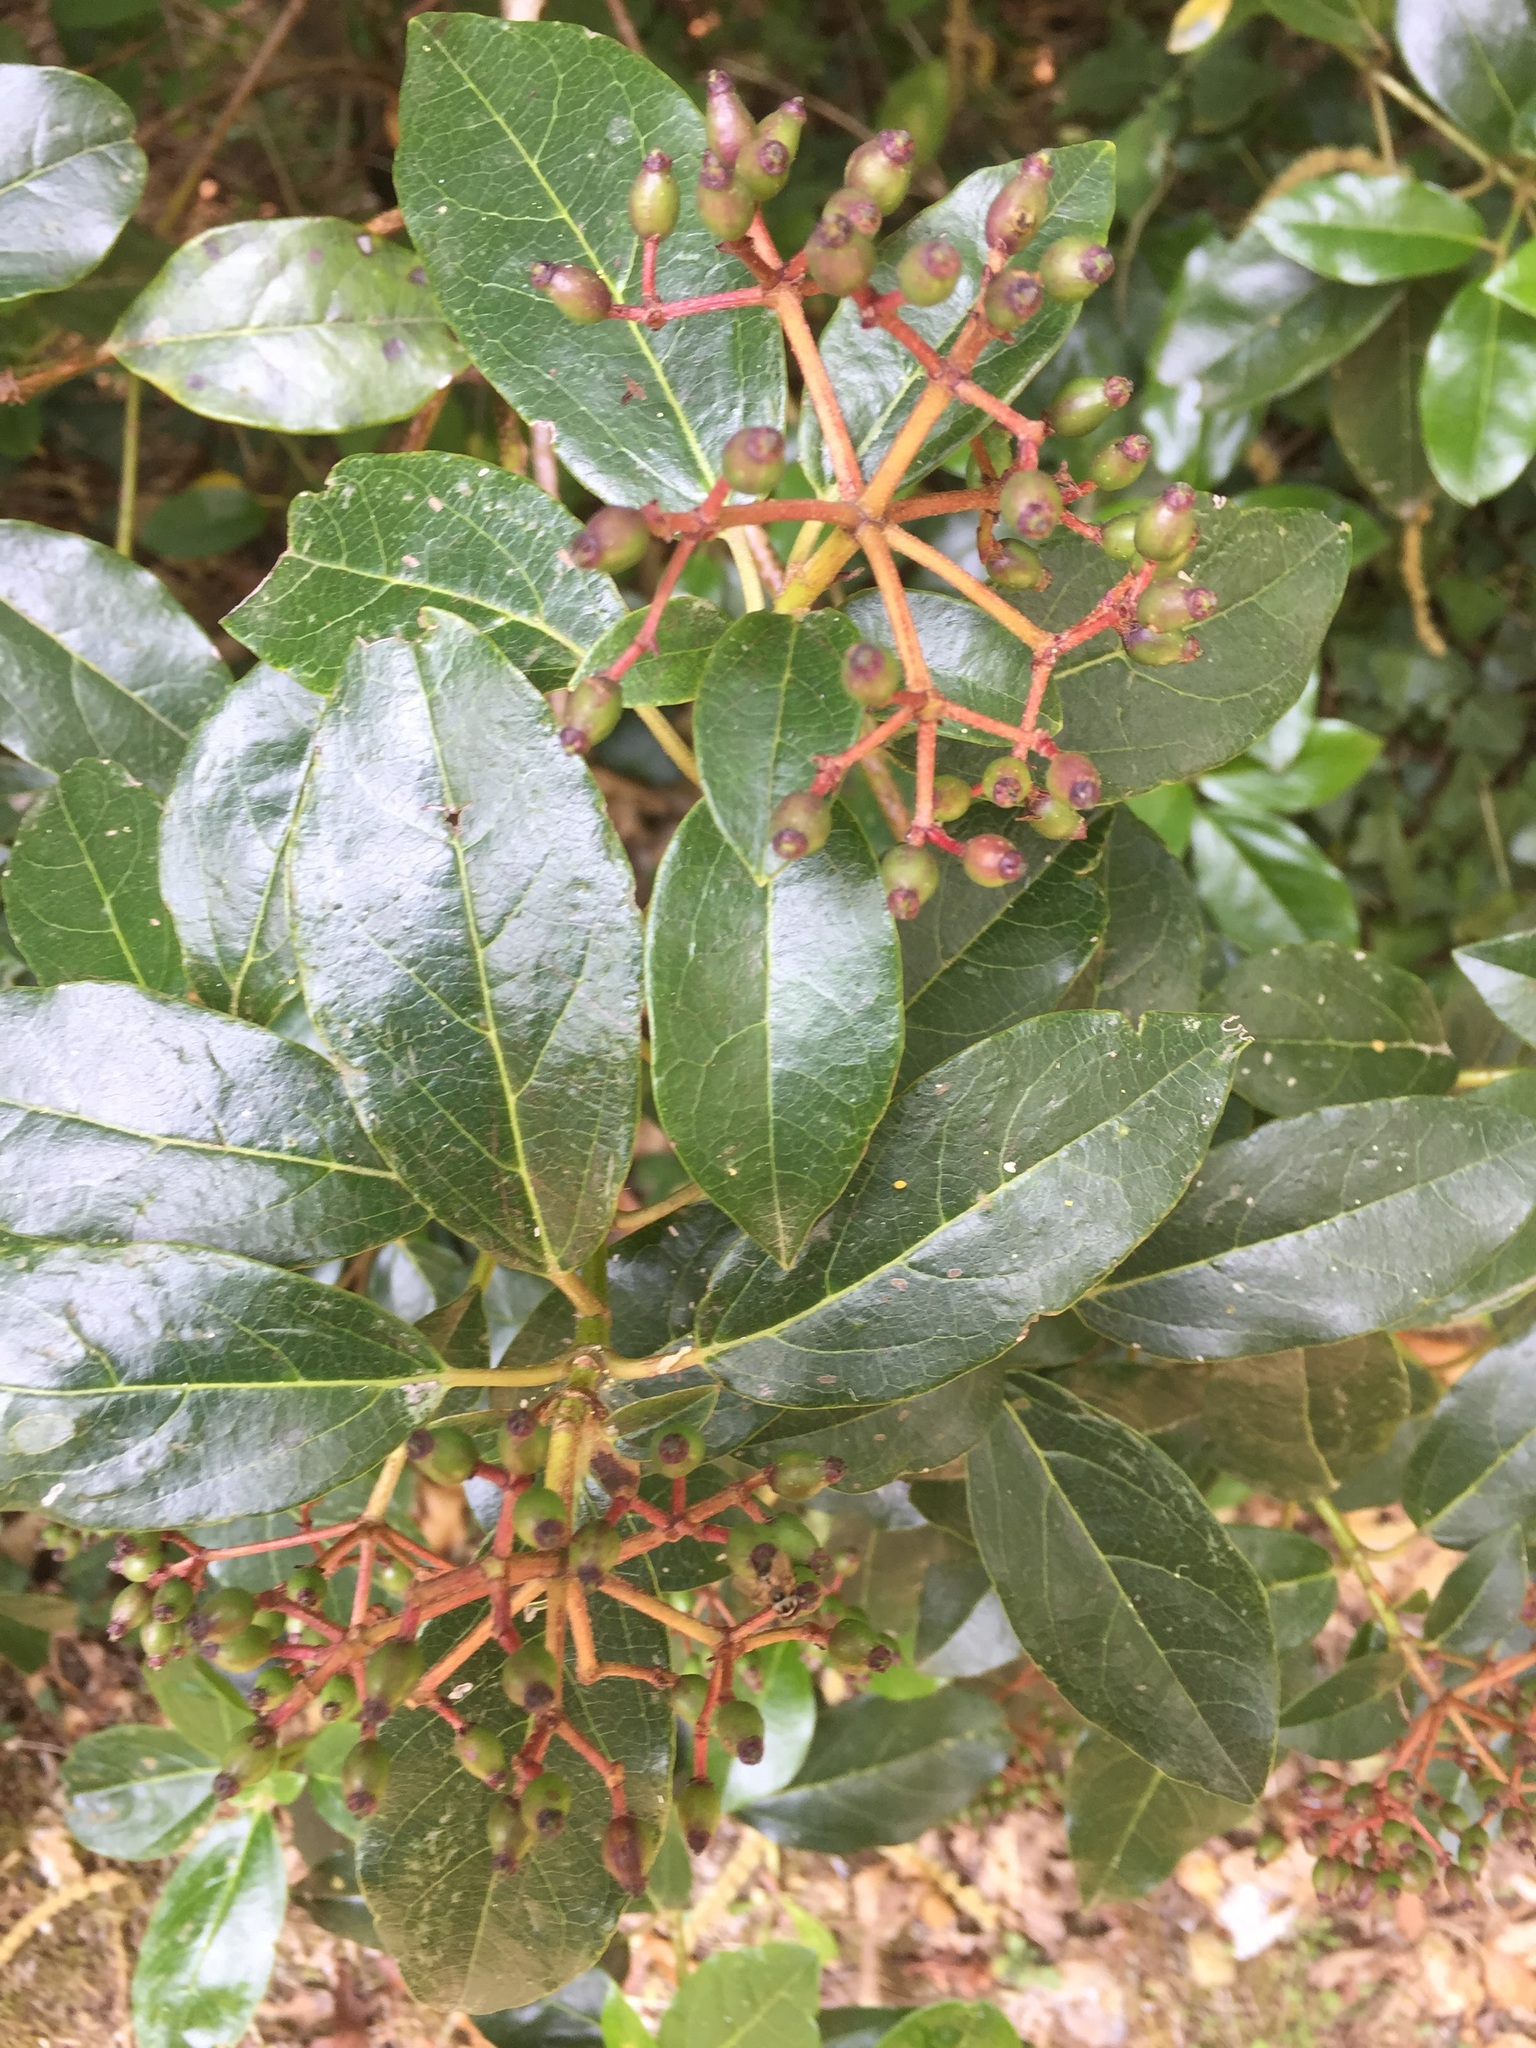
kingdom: Plantae
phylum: Tracheophyta
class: Magnoliopsida
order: Dipsacales
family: Viburnaceae
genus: Viburnum
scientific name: Viburnum tinus
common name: Laurustinus
